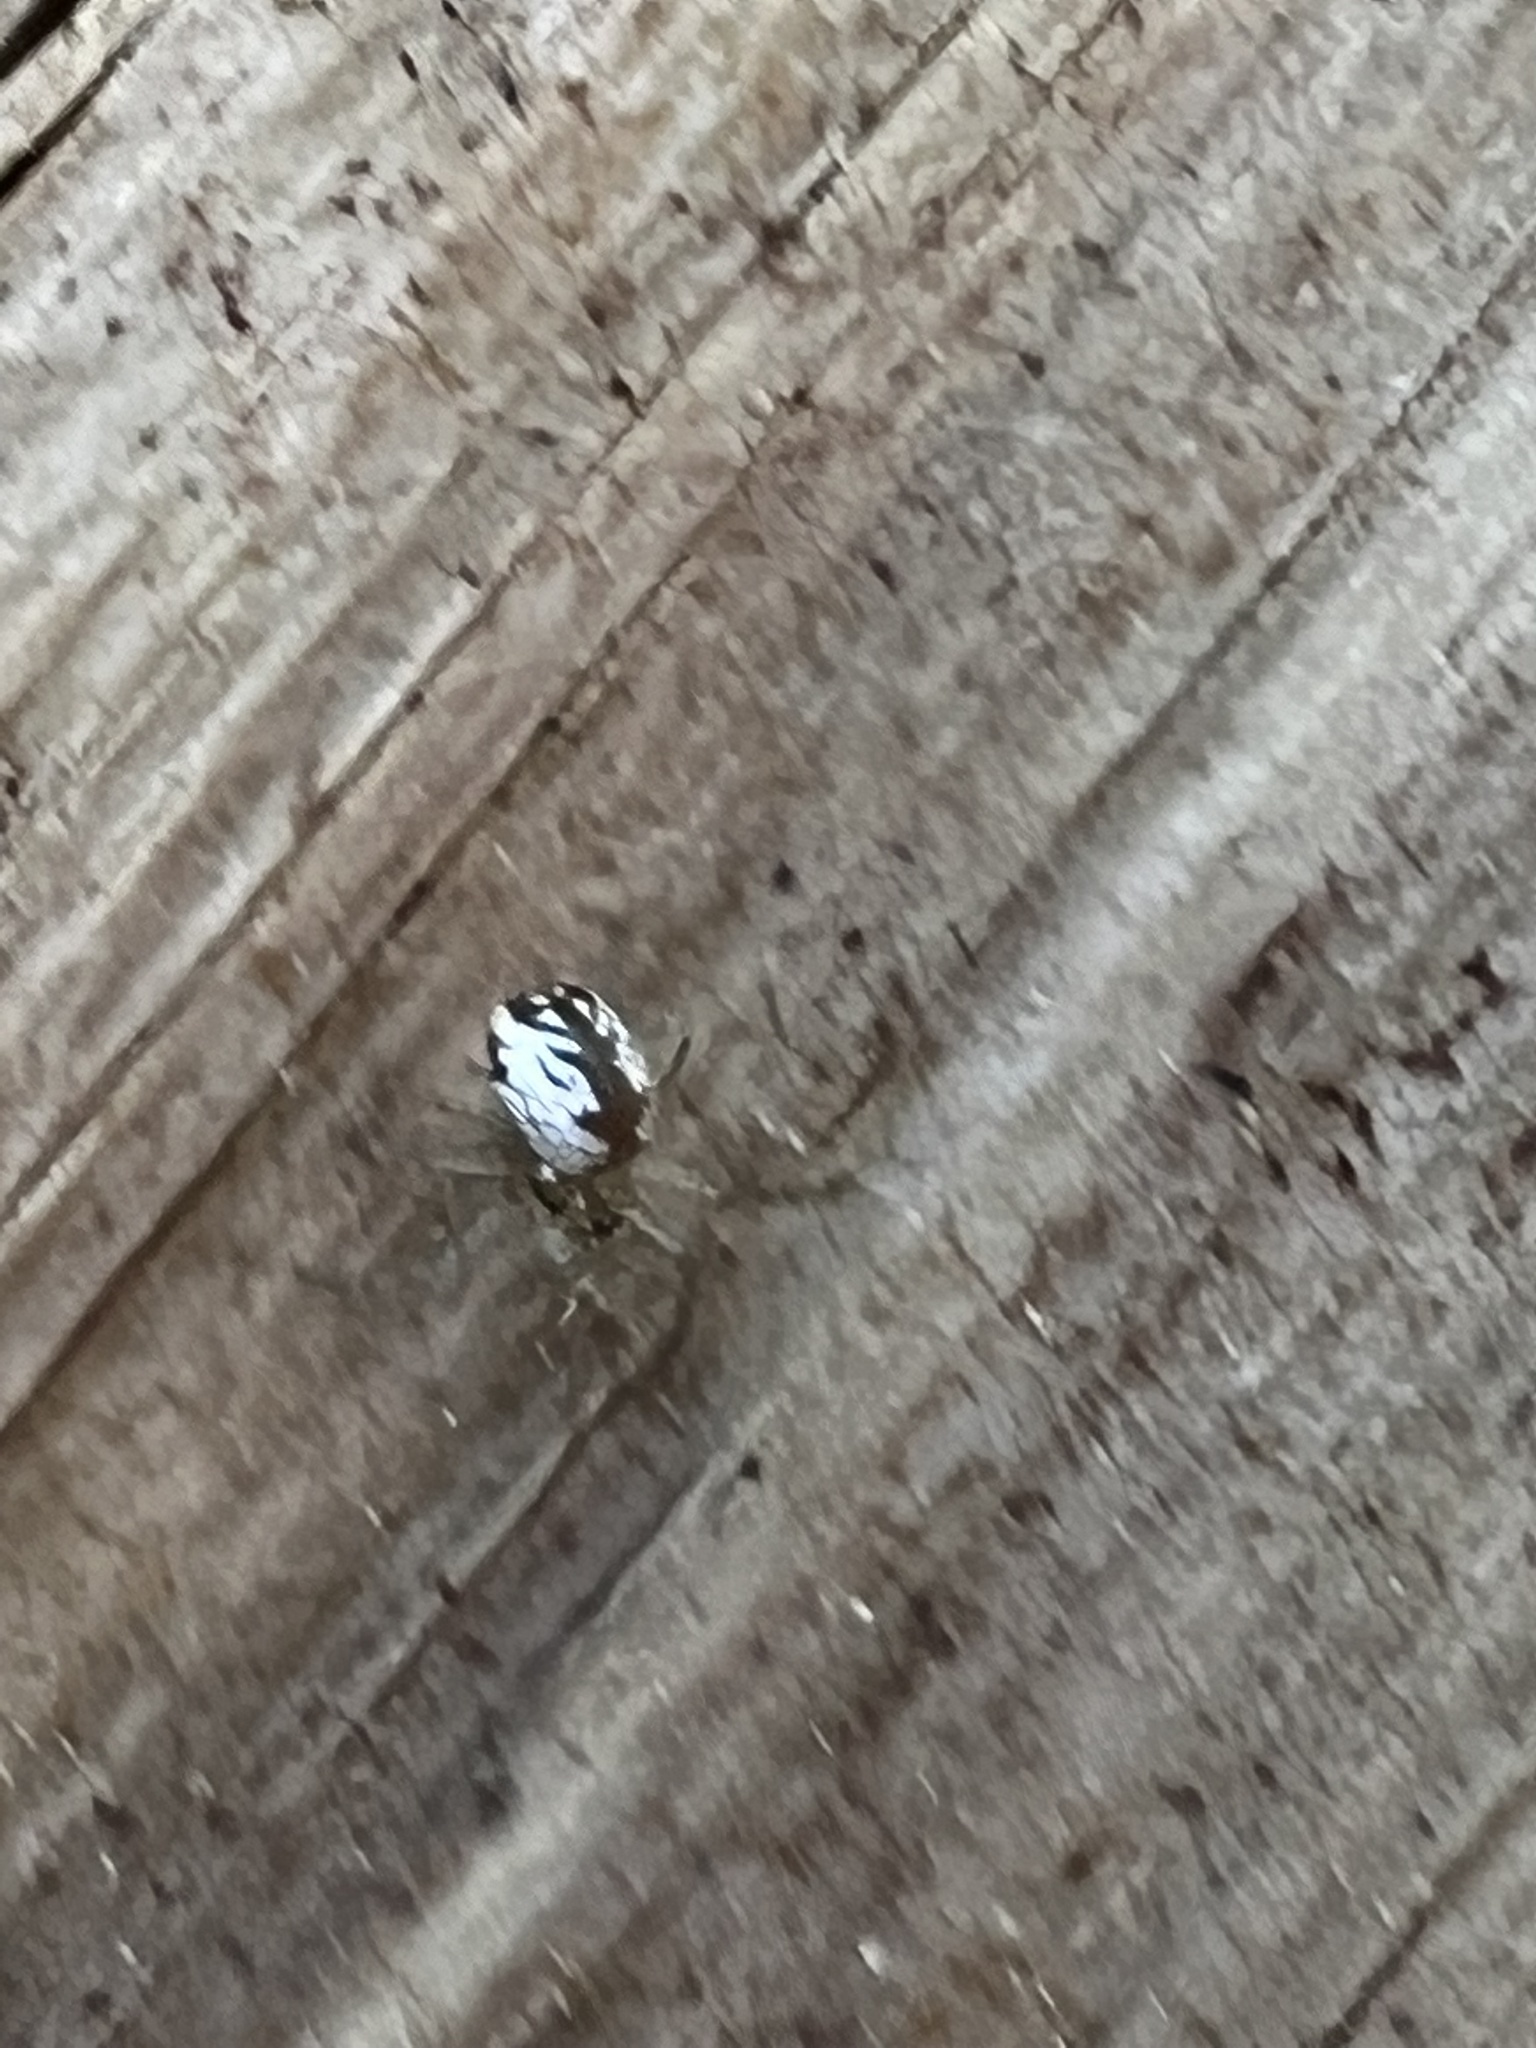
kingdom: Animalia
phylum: Arthropoda
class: Arachnida
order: Araneae
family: Tetragnathidae
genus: Leucauge
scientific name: Leucauge venusta
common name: Longjawed orb weavers
